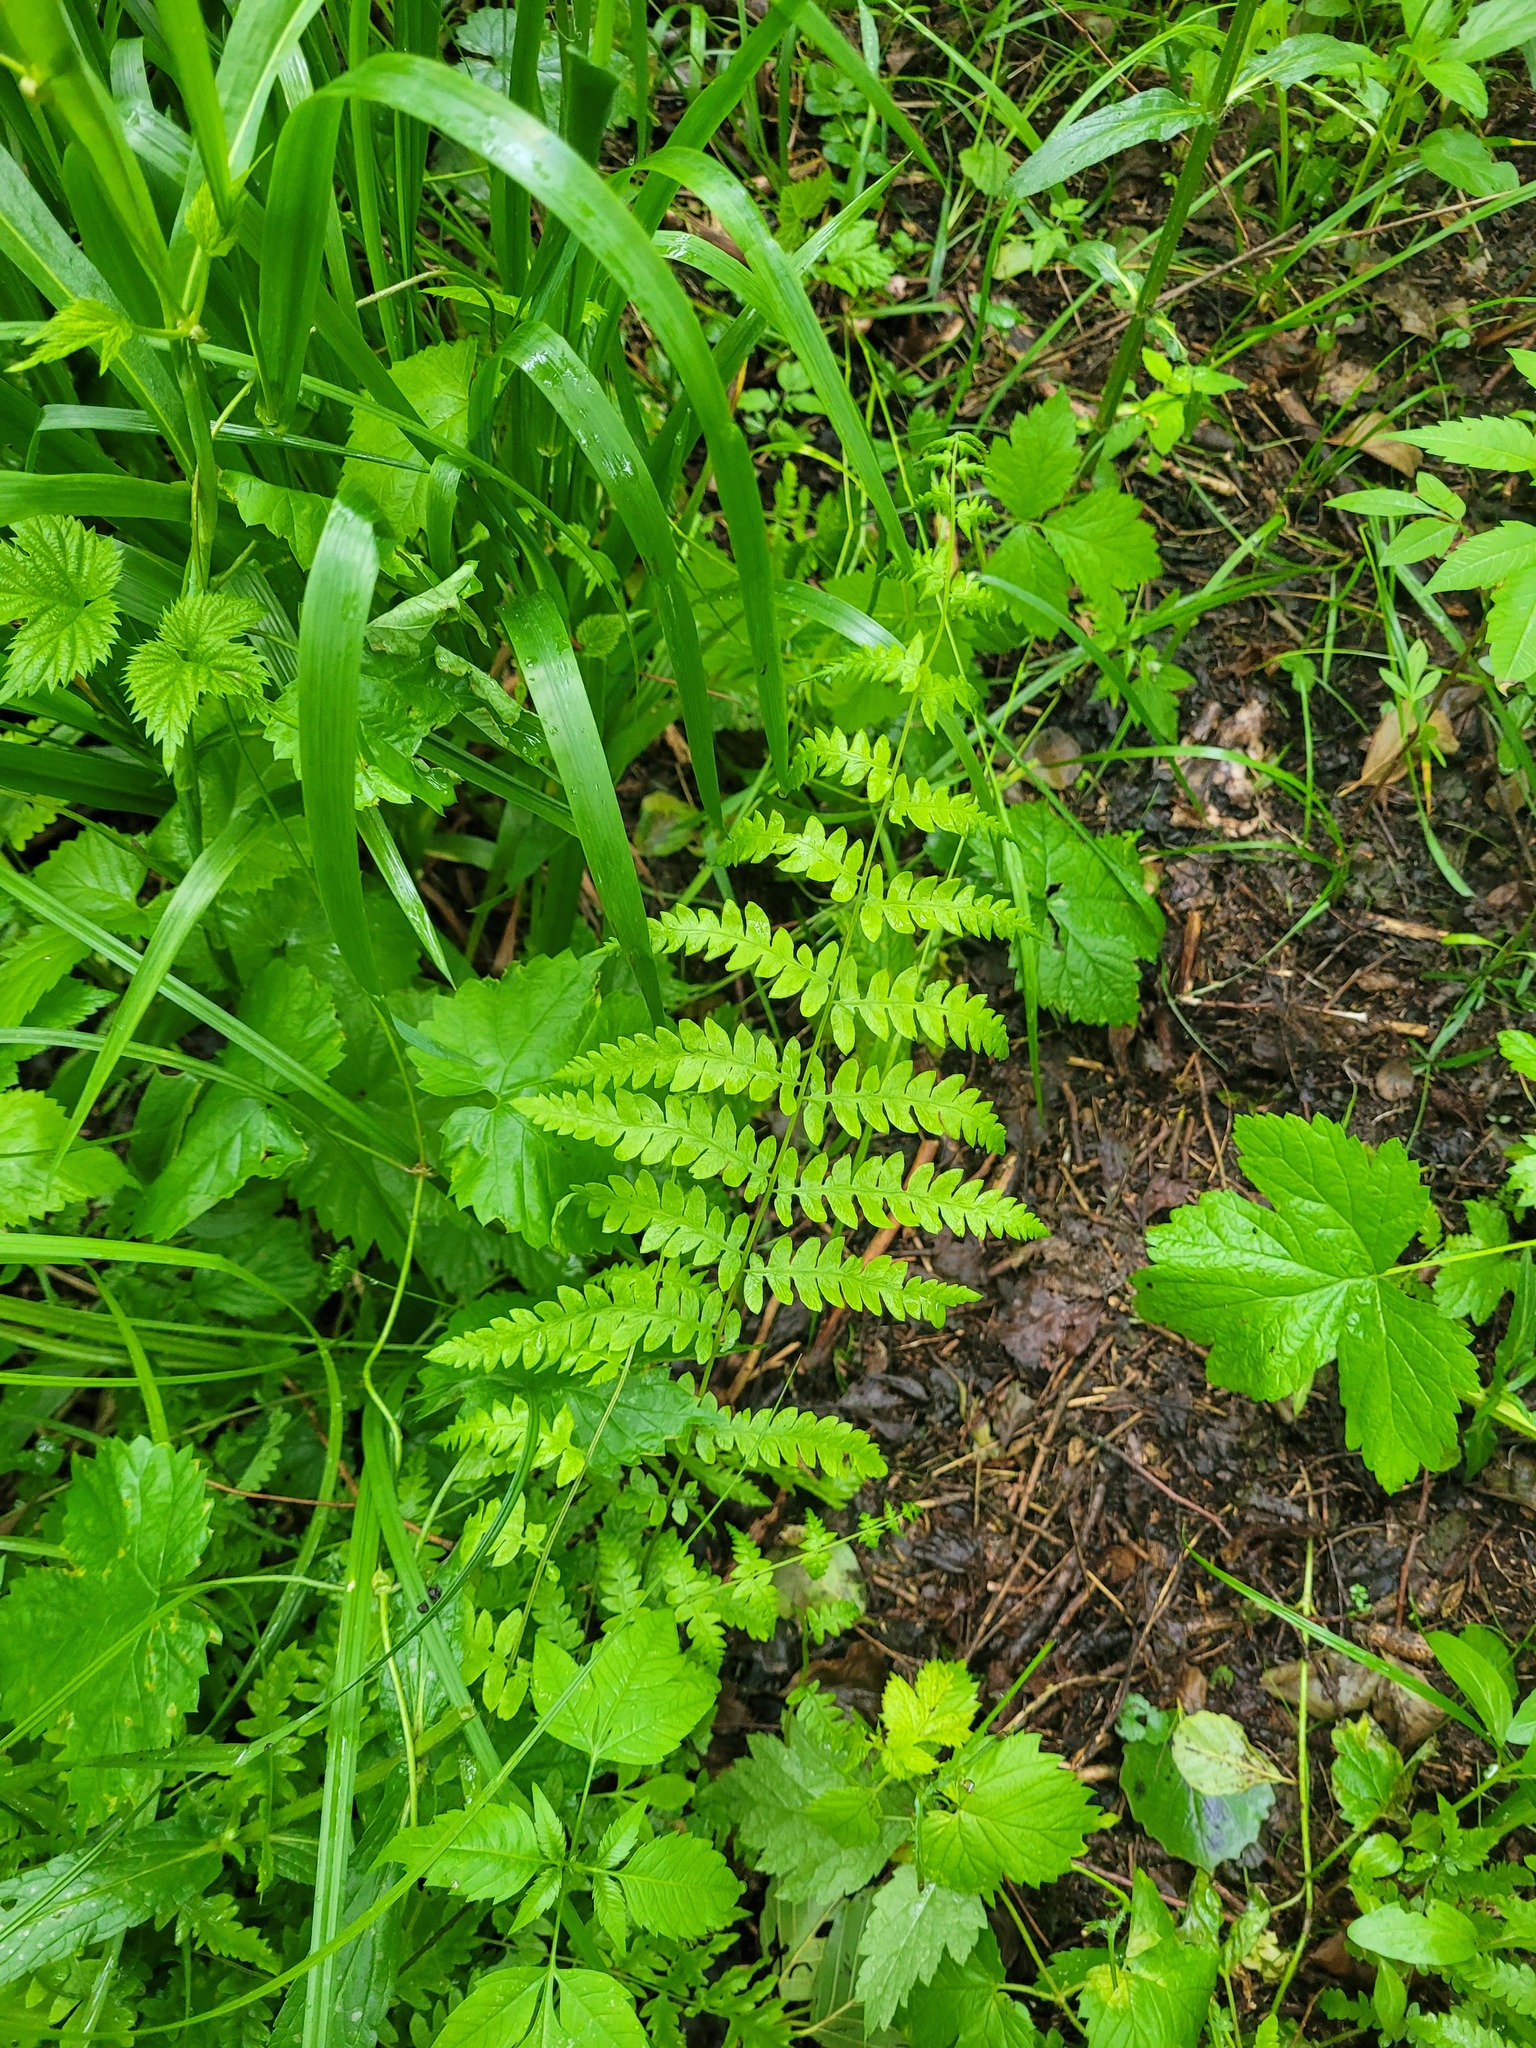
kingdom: Plantae
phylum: Tracheophyta
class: Polypodiopsida
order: Polypodiales
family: Thelypteridaceae
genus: Thelypteris
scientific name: Thelypteris palustris
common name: Marsh fern
